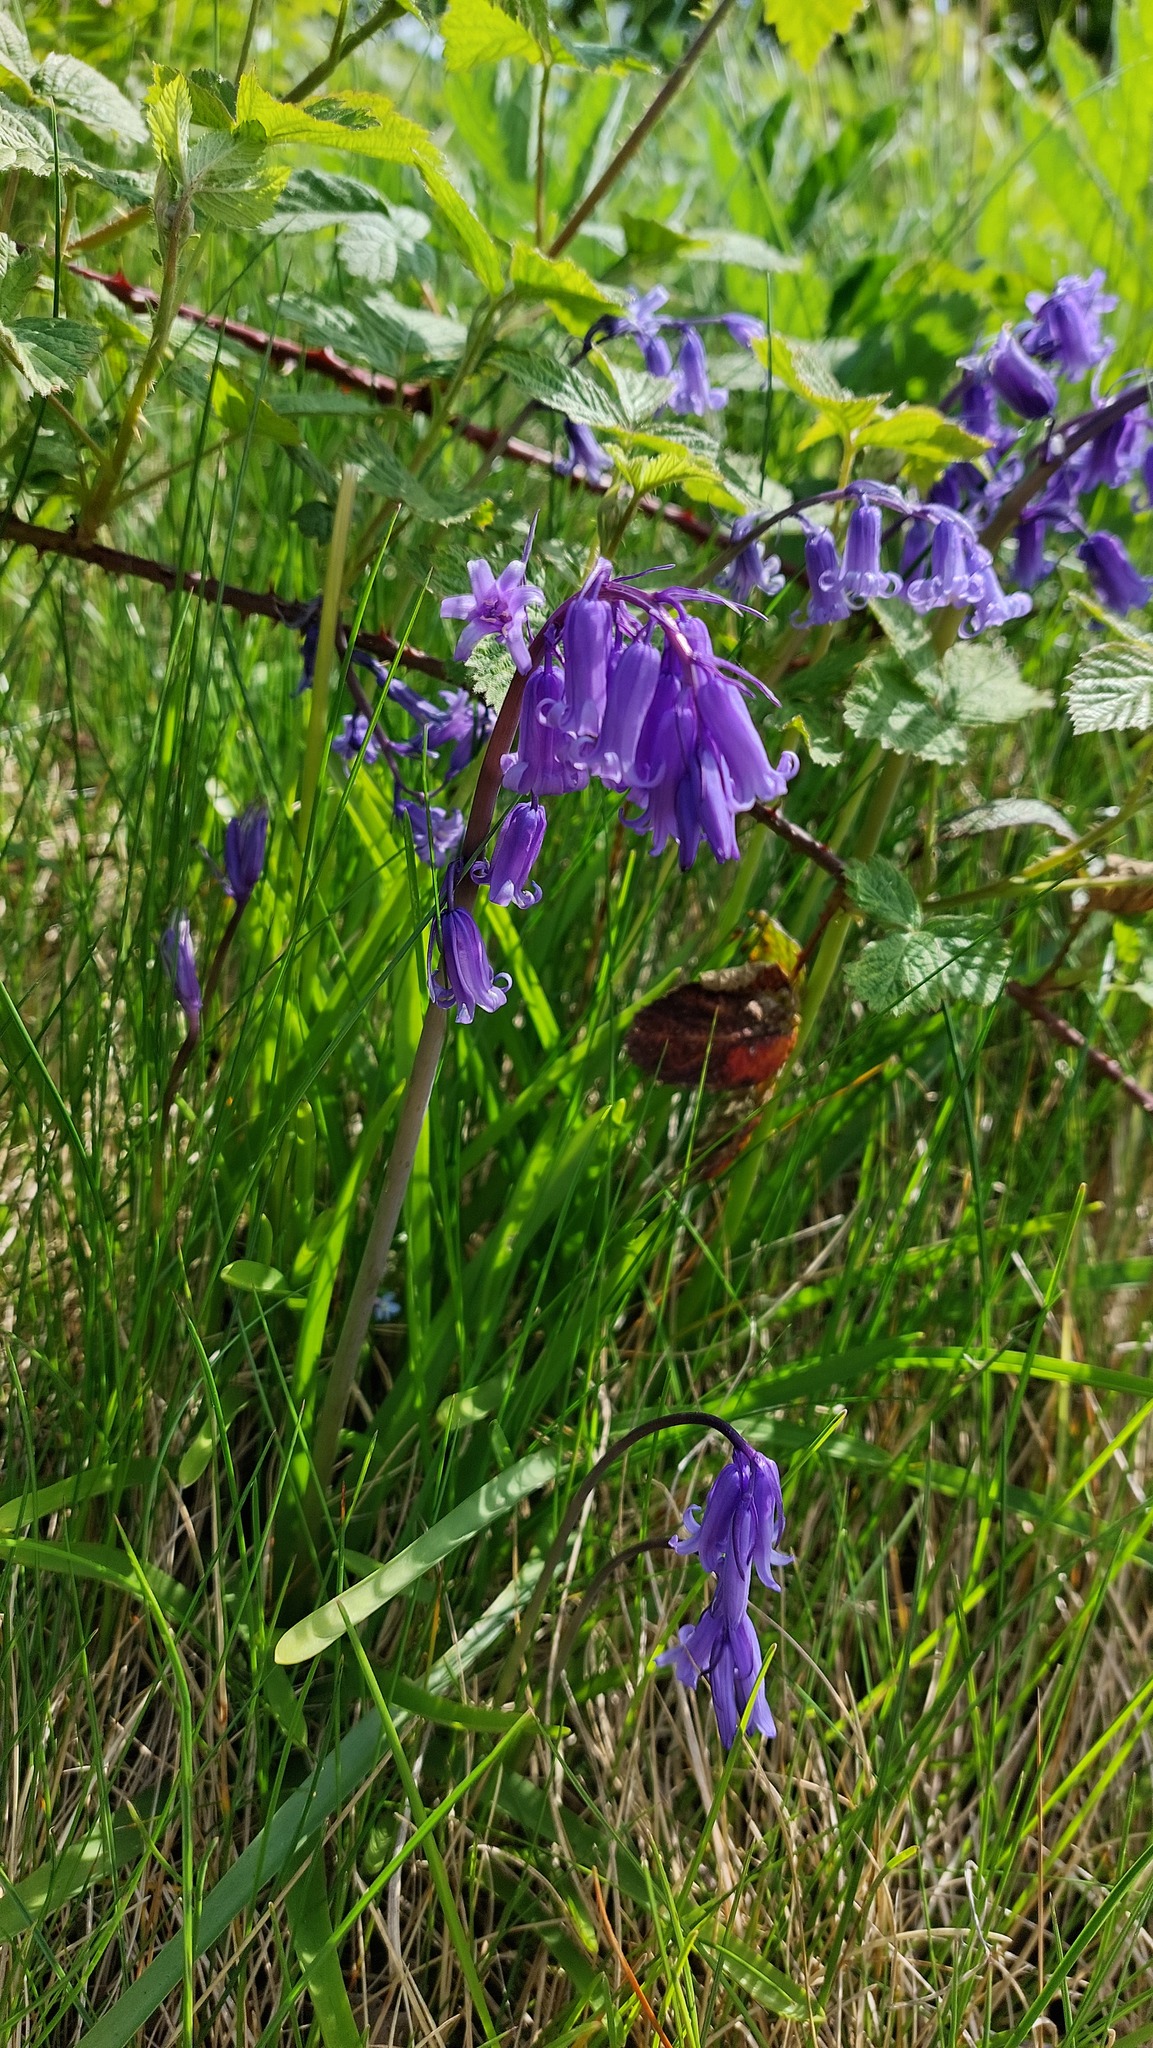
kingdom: Plantae
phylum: Tracheophyta
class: Liliopsida
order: Asparagales
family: Asparagaceae
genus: Hyacinthoides
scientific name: Hyacinthoides non-scripta
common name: Bluebell
